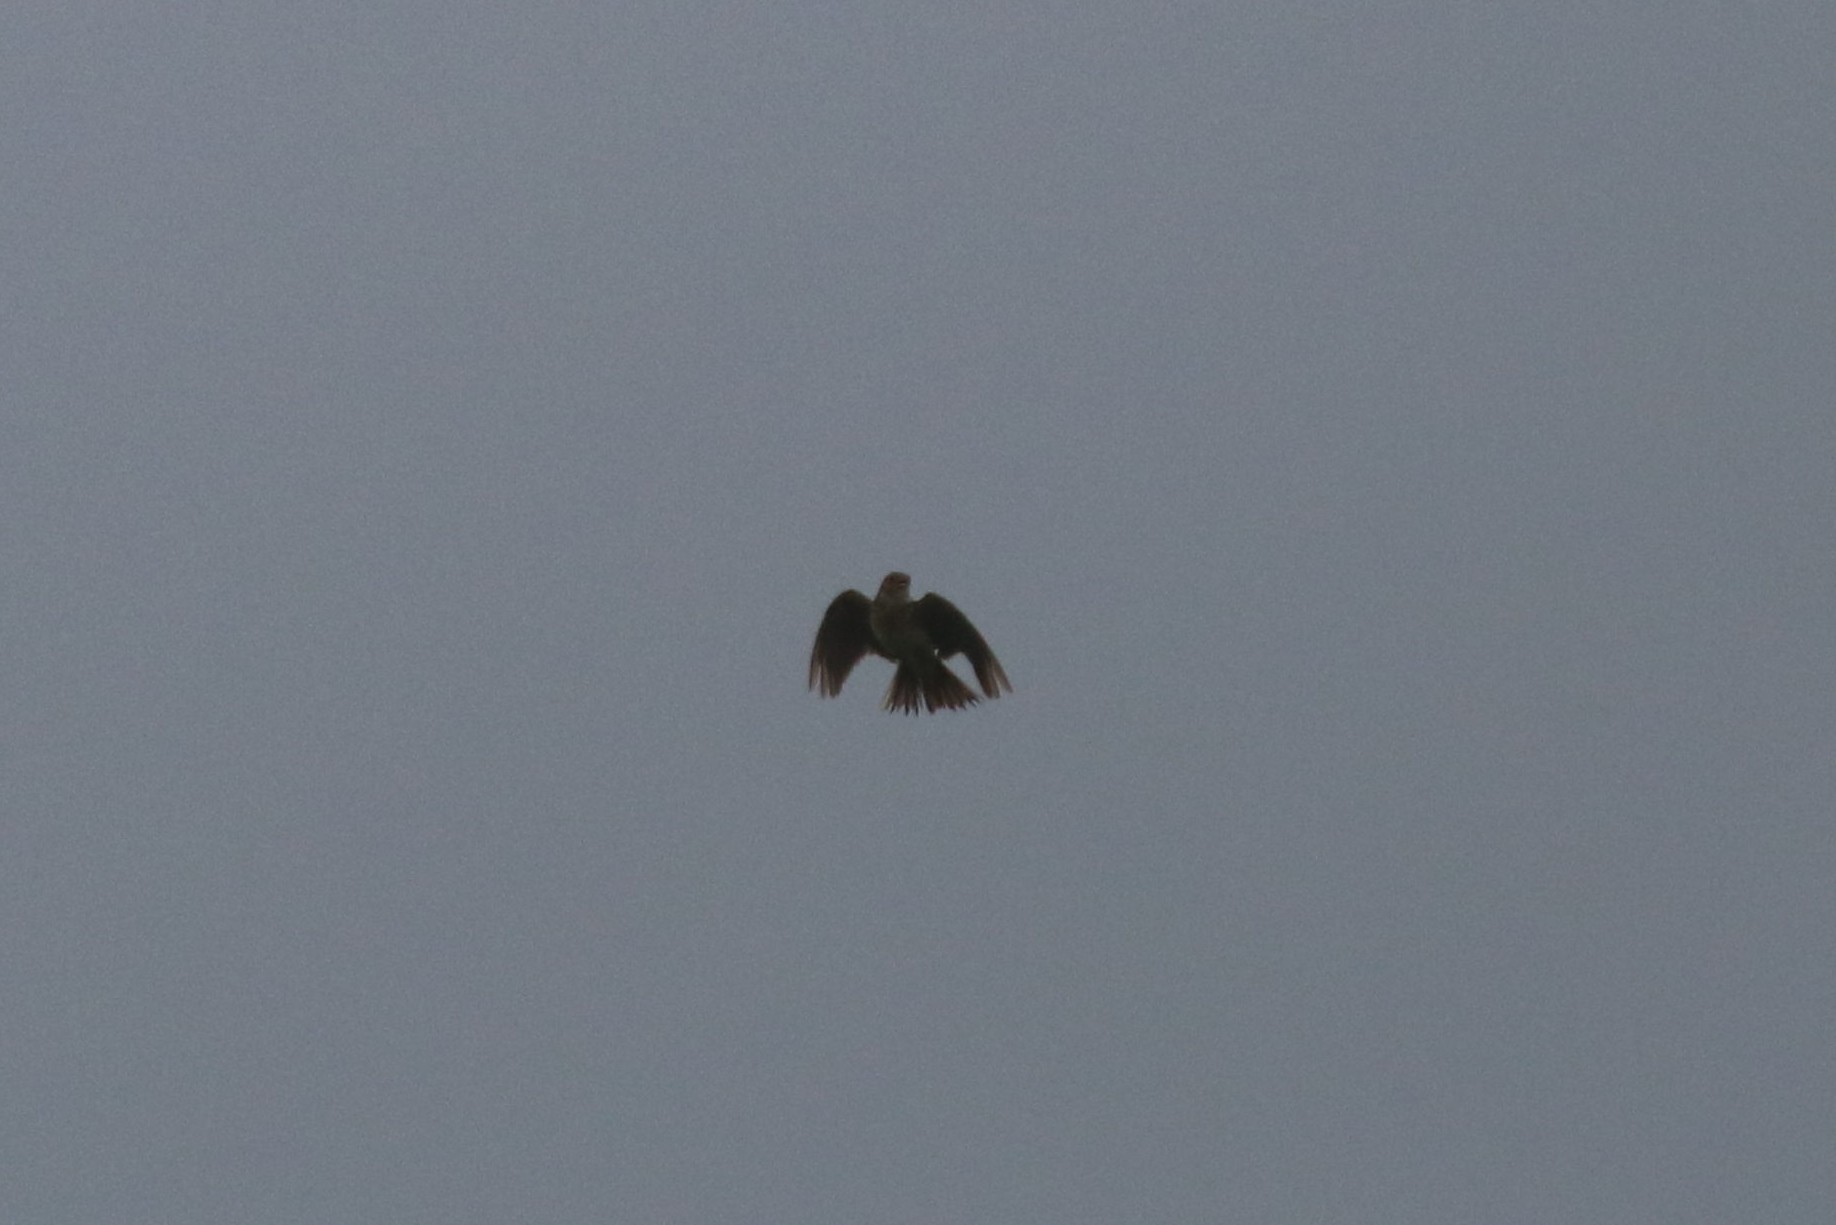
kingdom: Animalia
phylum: Chordata
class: Aves
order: Passeriformes
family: Alaudidae
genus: Alauda
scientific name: Alauda arvensis
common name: Eurasian skylark
